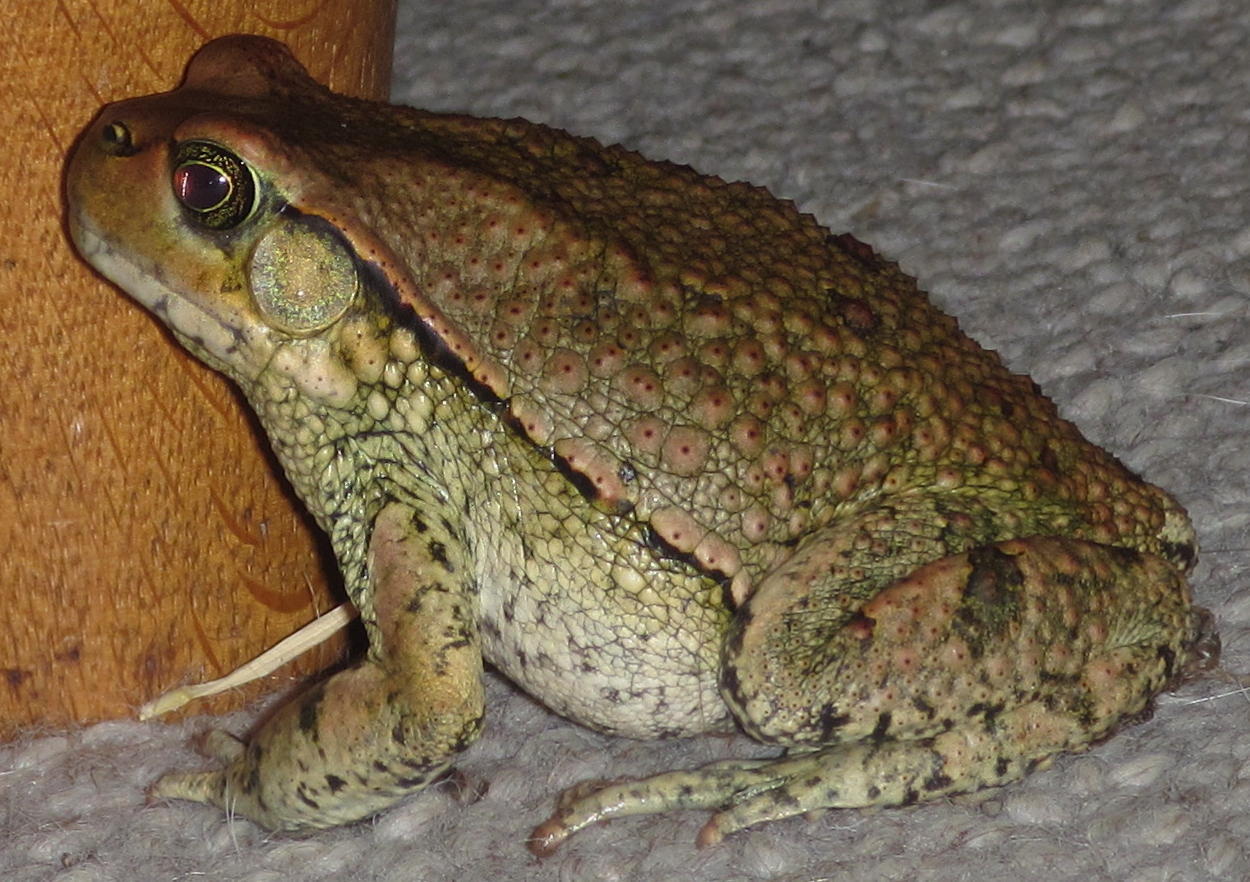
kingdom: Animalia
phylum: Chordata
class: Amphibia
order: Anura
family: Bufonidae
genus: Schismaderma
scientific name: Schismaderma carens
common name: African split-skin toad
